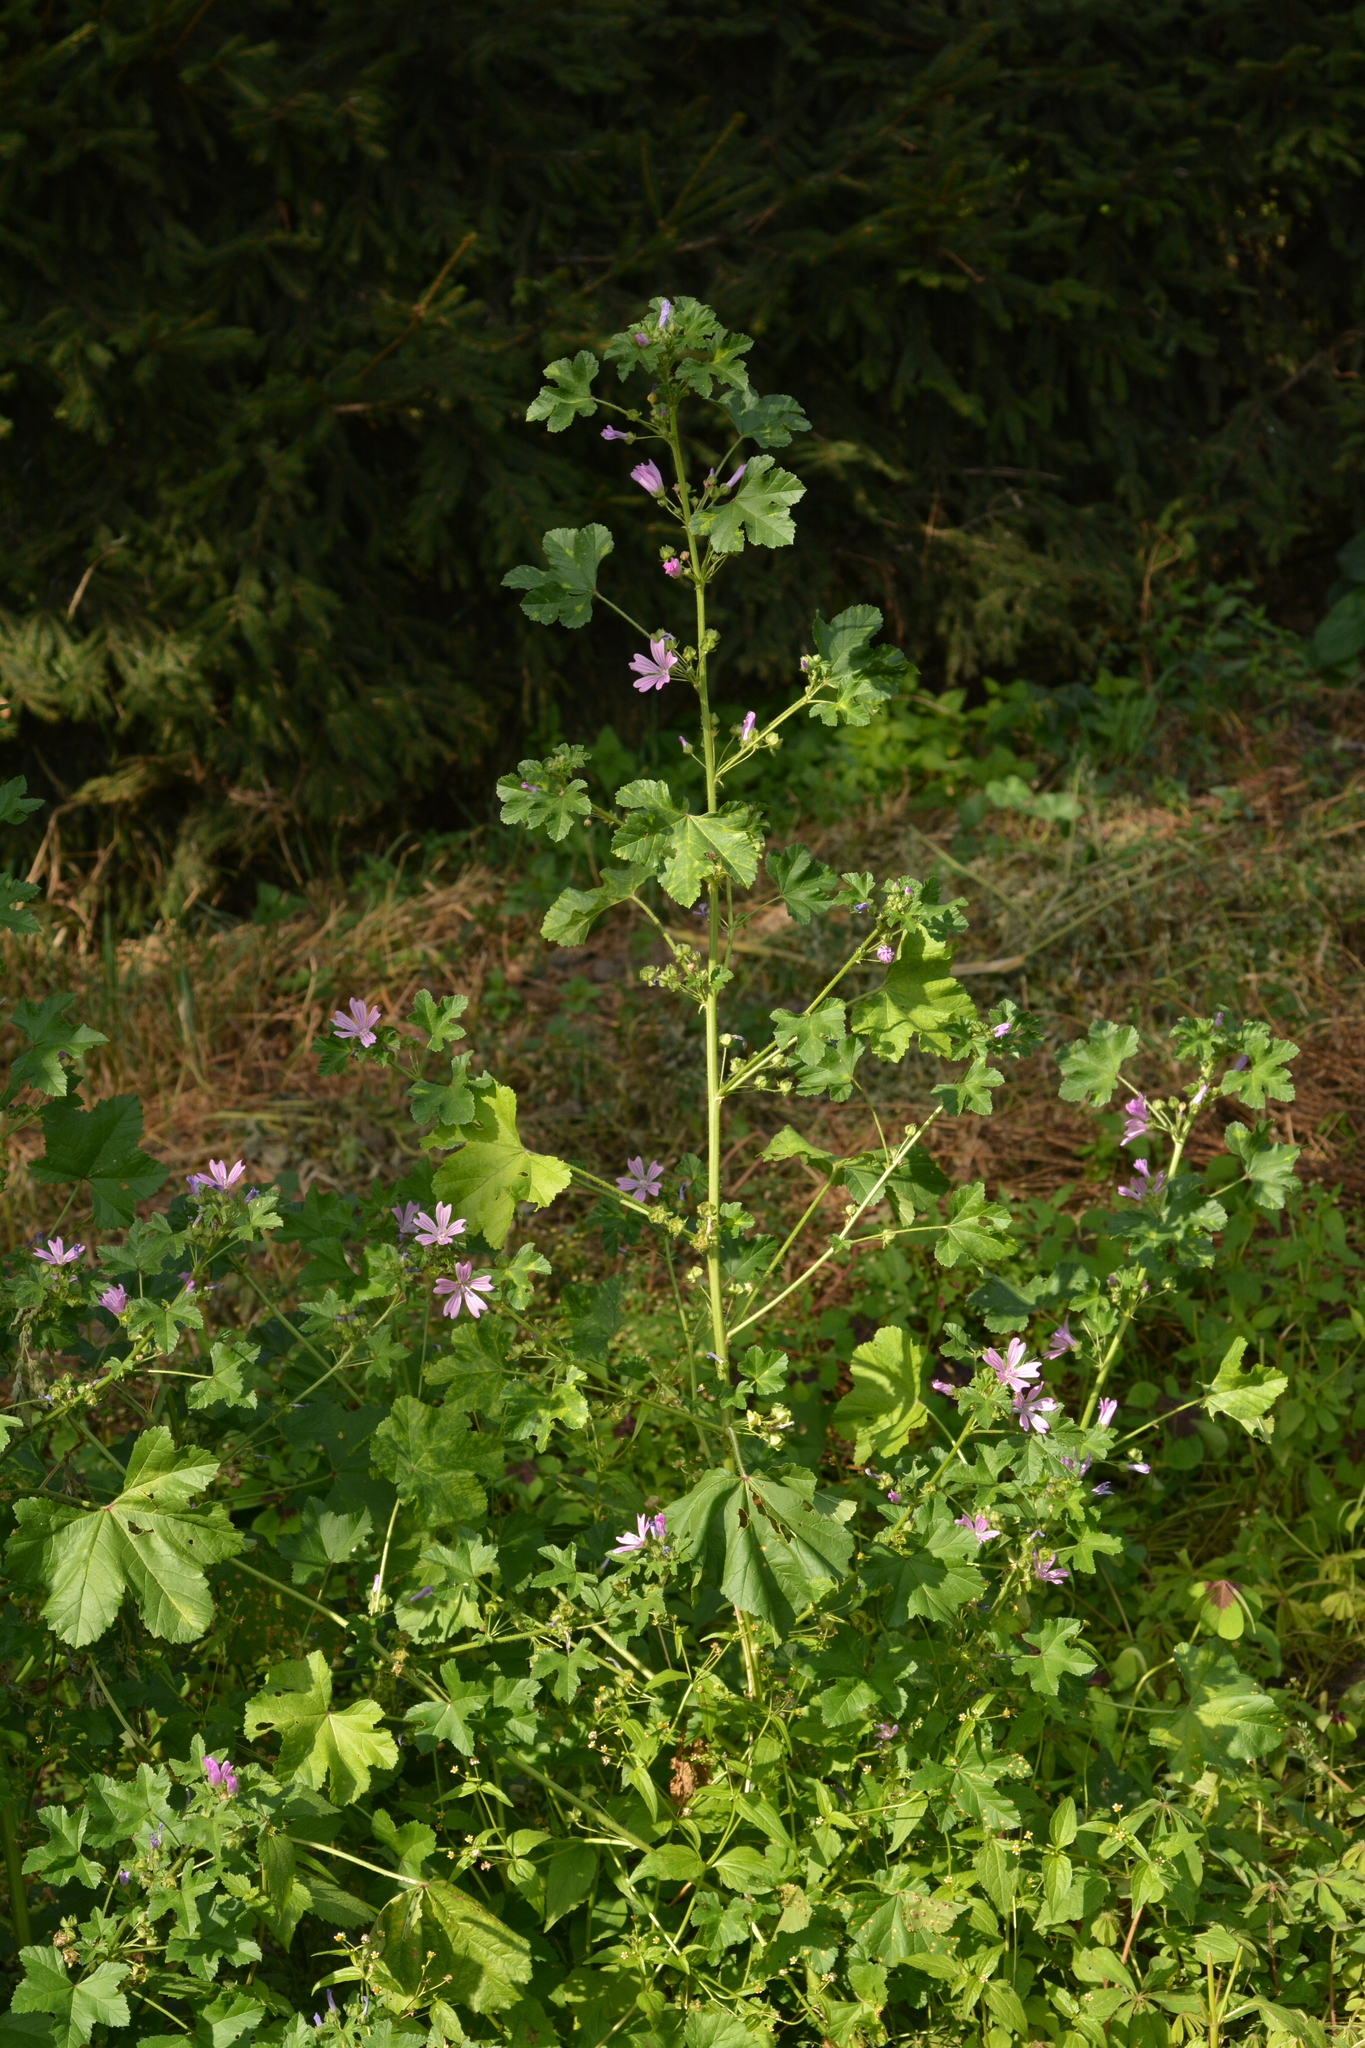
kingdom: Plantae
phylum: Tracheophyta
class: Magnoliopsida
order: Malvales
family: Malvaceae
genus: Malva
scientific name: Malva sylvestris
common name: Common mallow
